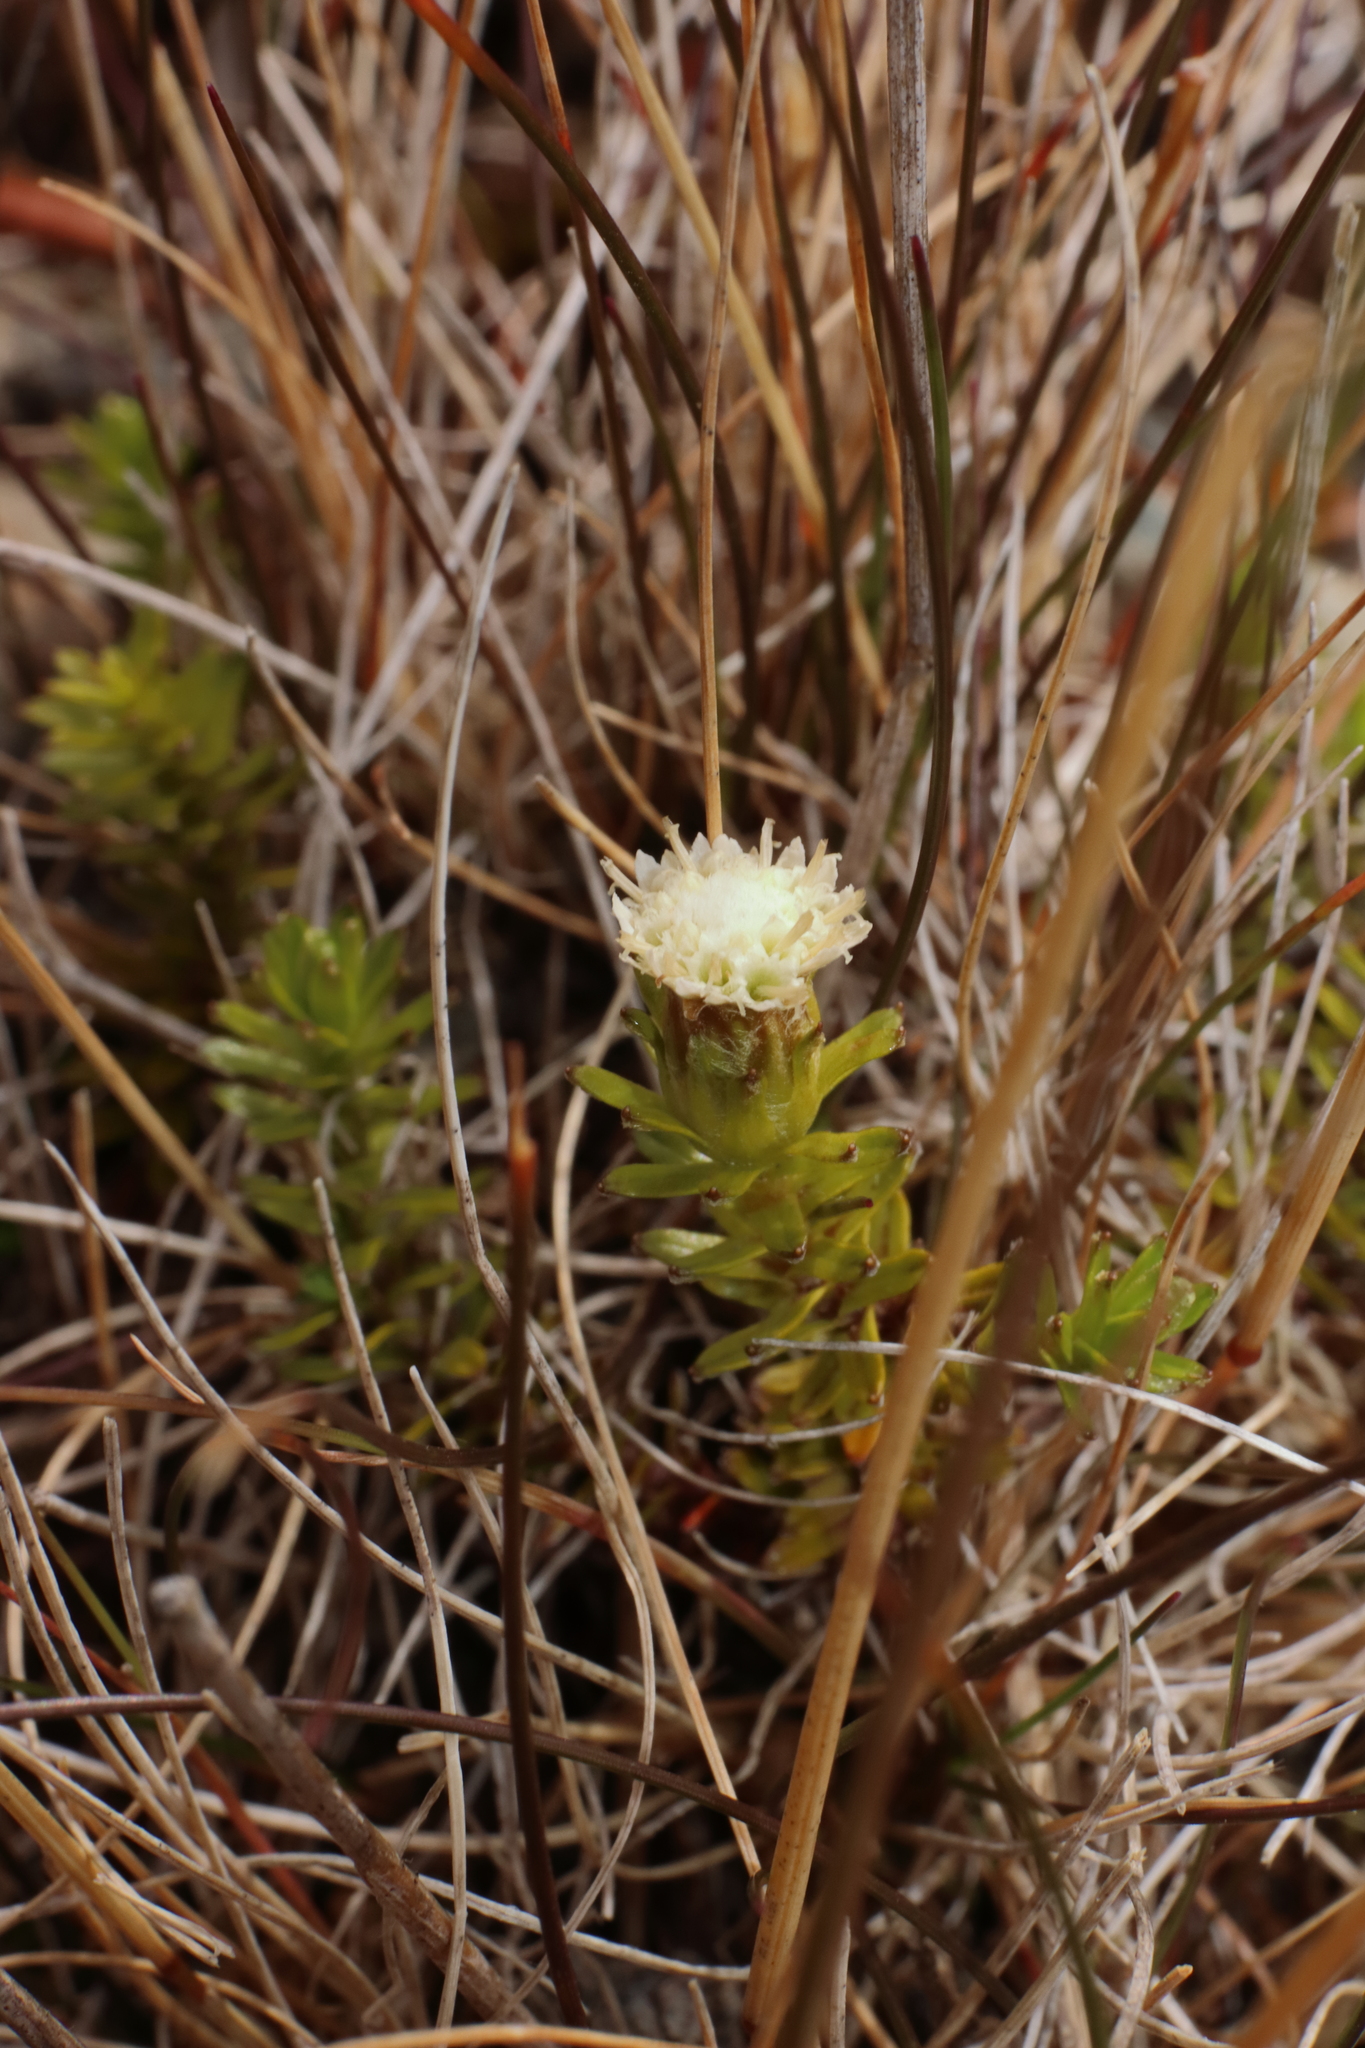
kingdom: Plantae
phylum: Tracheophyta
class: Magnoliopsida
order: Asterales
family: Asteraceae
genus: Raoulia
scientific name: Raoulia glabra
